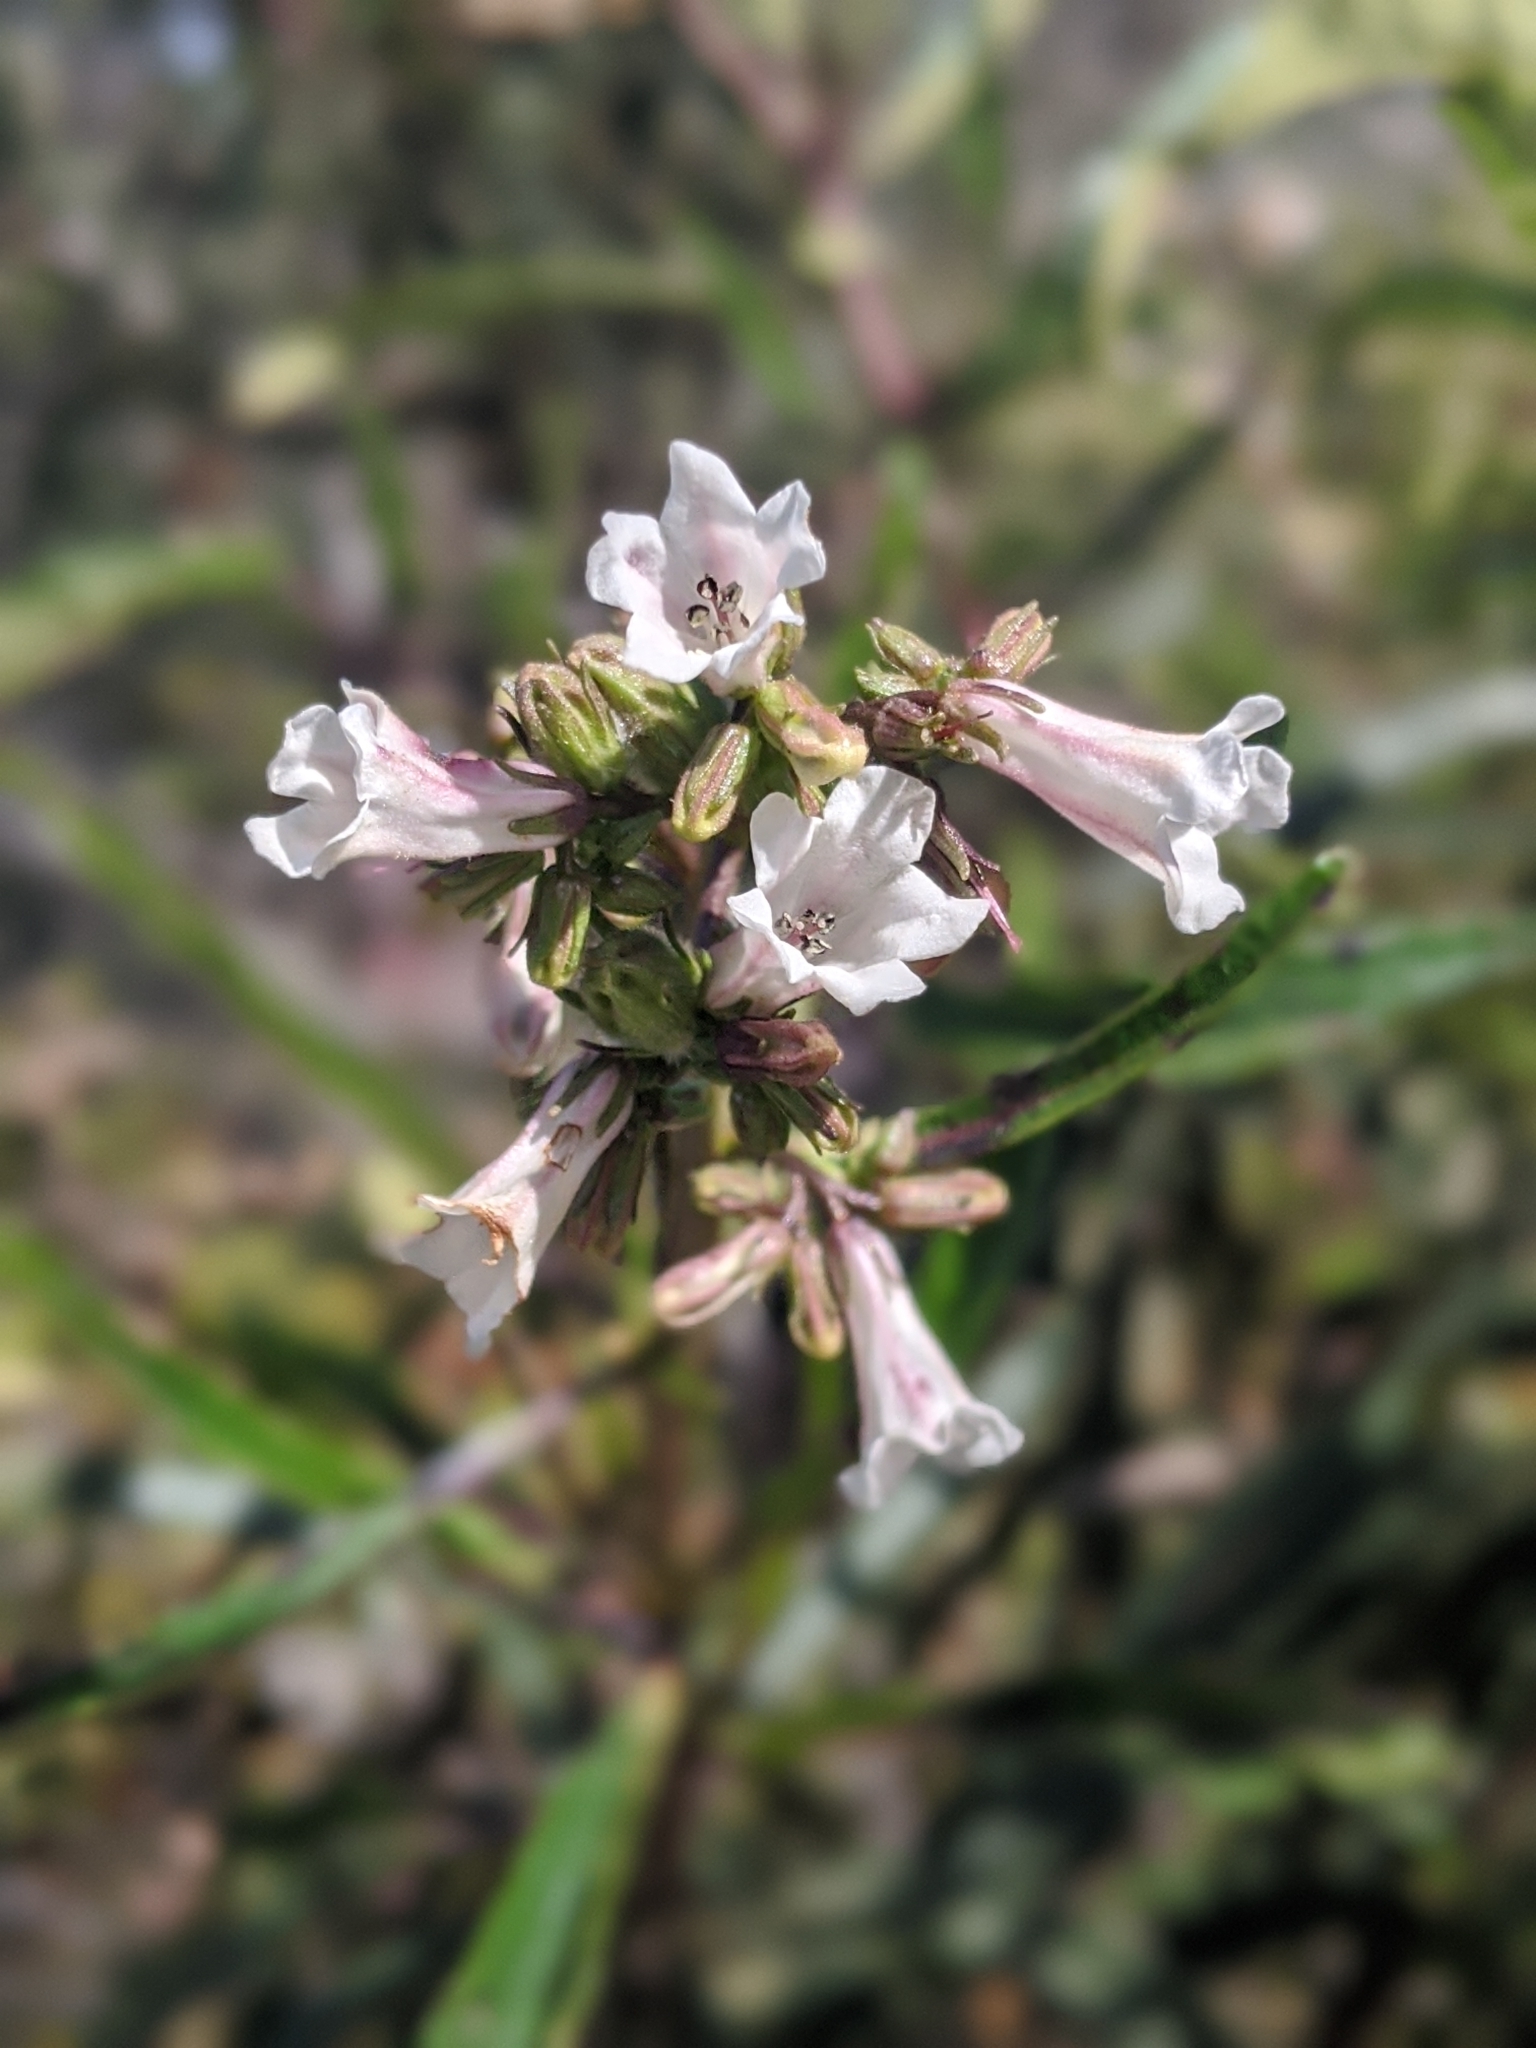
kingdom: Plantae
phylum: Tracheophyta
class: Magnoliopsida
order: Boraginales
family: Namaceae
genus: Eriodictyon
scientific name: Eriodictyon californicum
